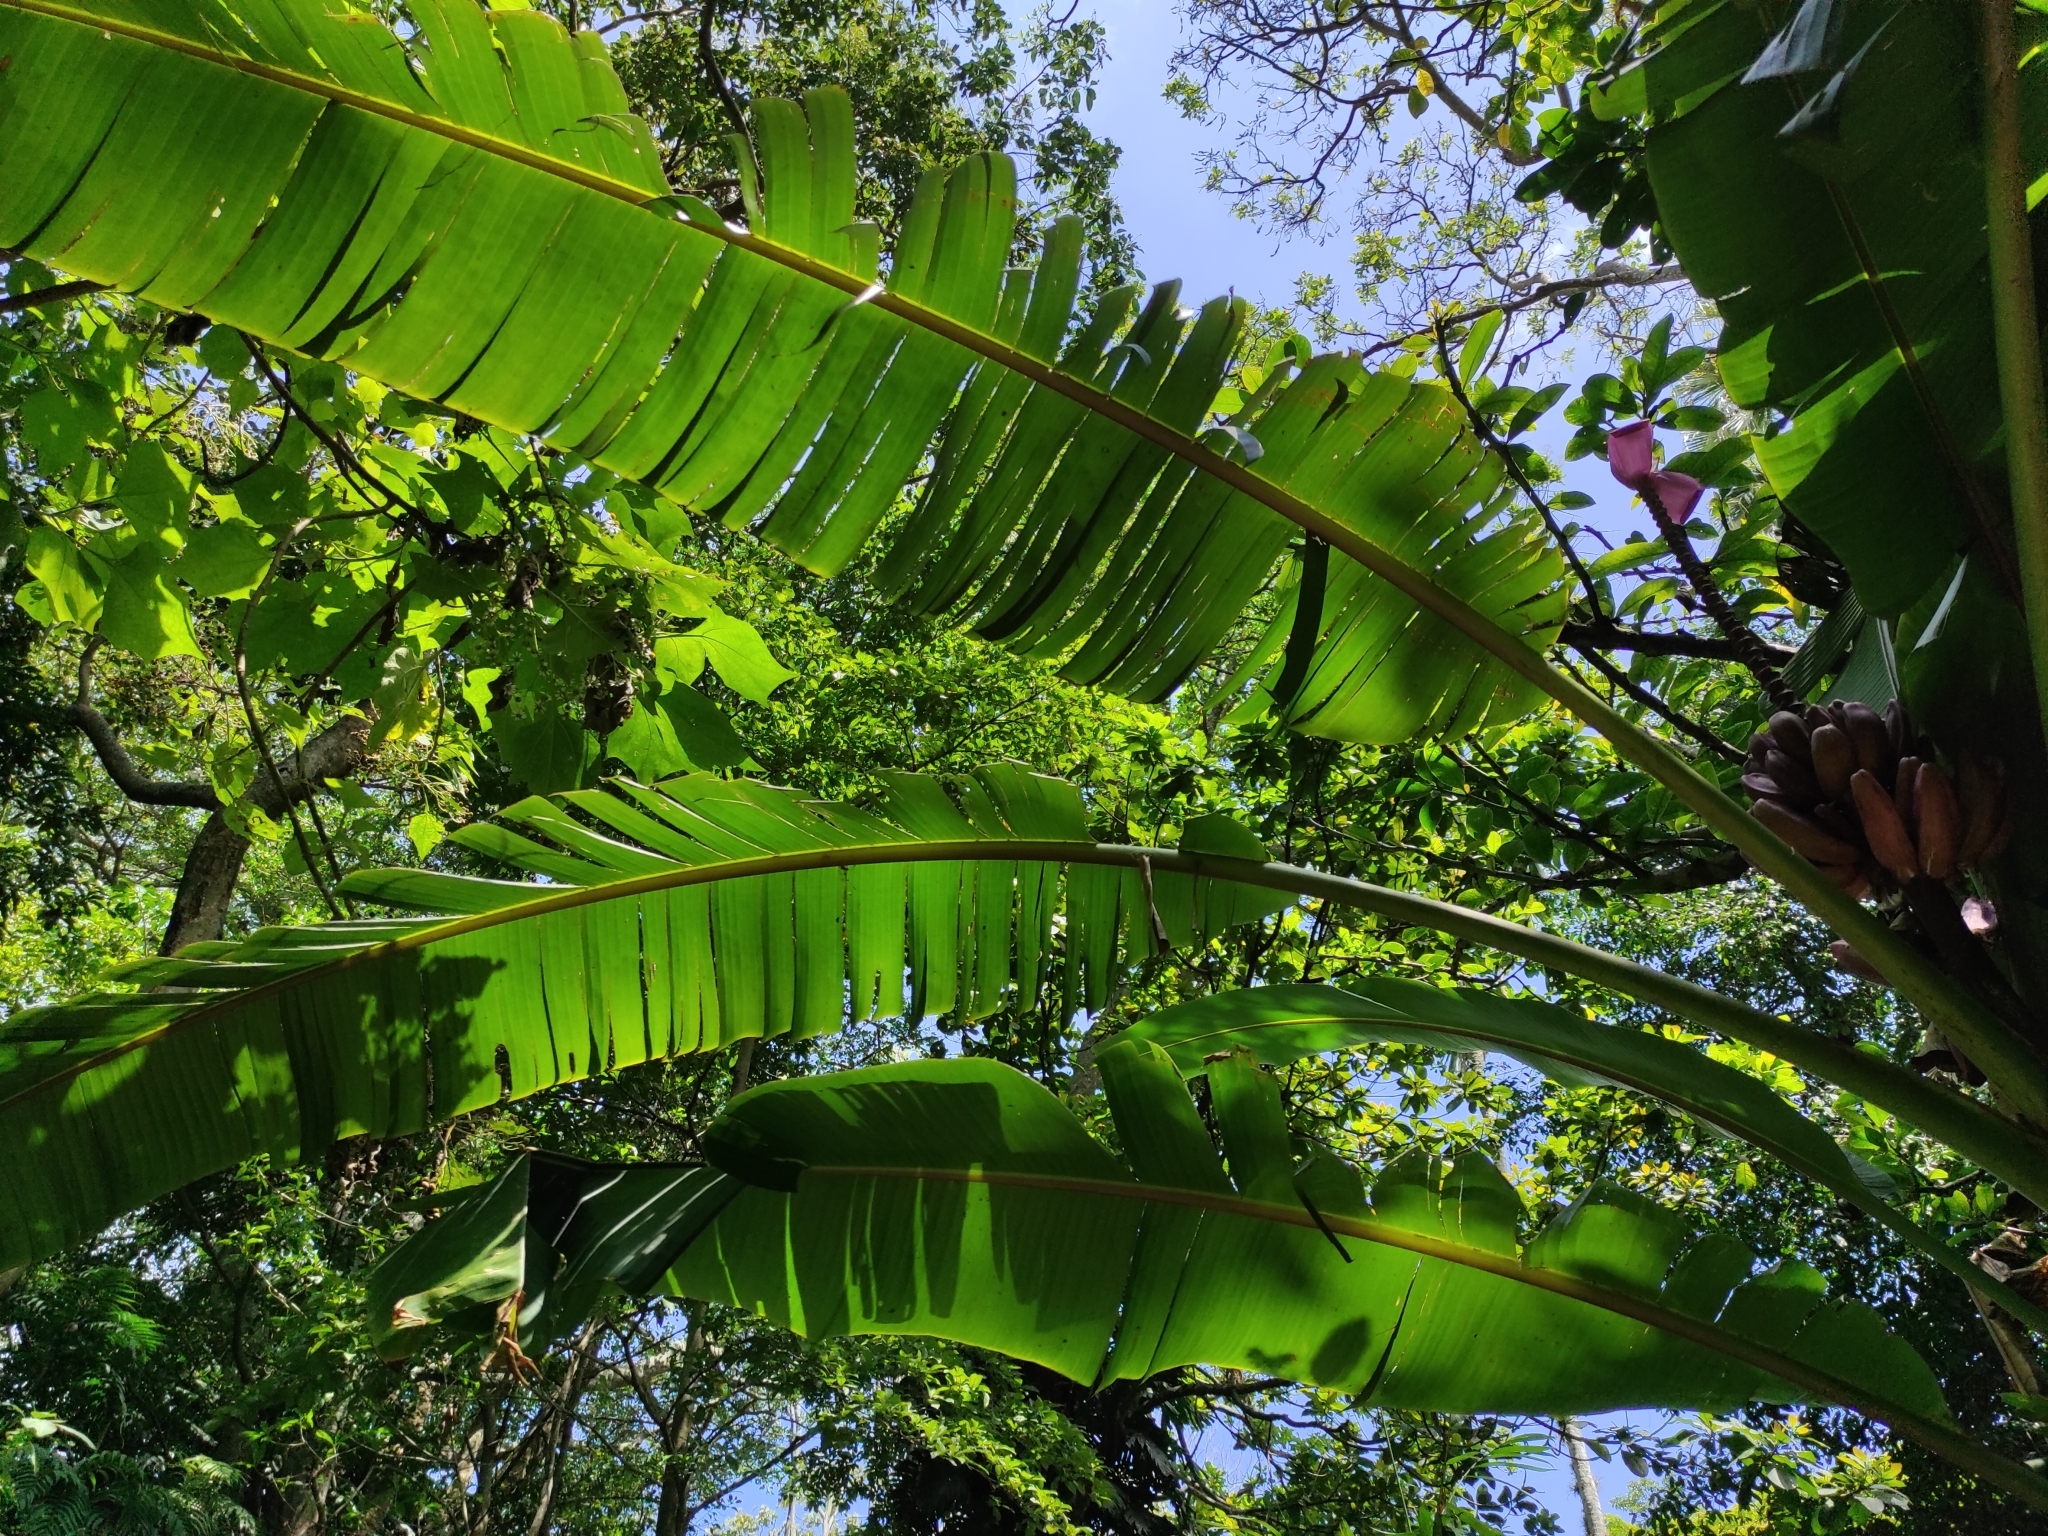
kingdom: Plantae
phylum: Tracheophyta
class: Liliopsida
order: Zingiberales
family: Musaceae
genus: Musa
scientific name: Musa velutina
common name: Pink velvet banana
